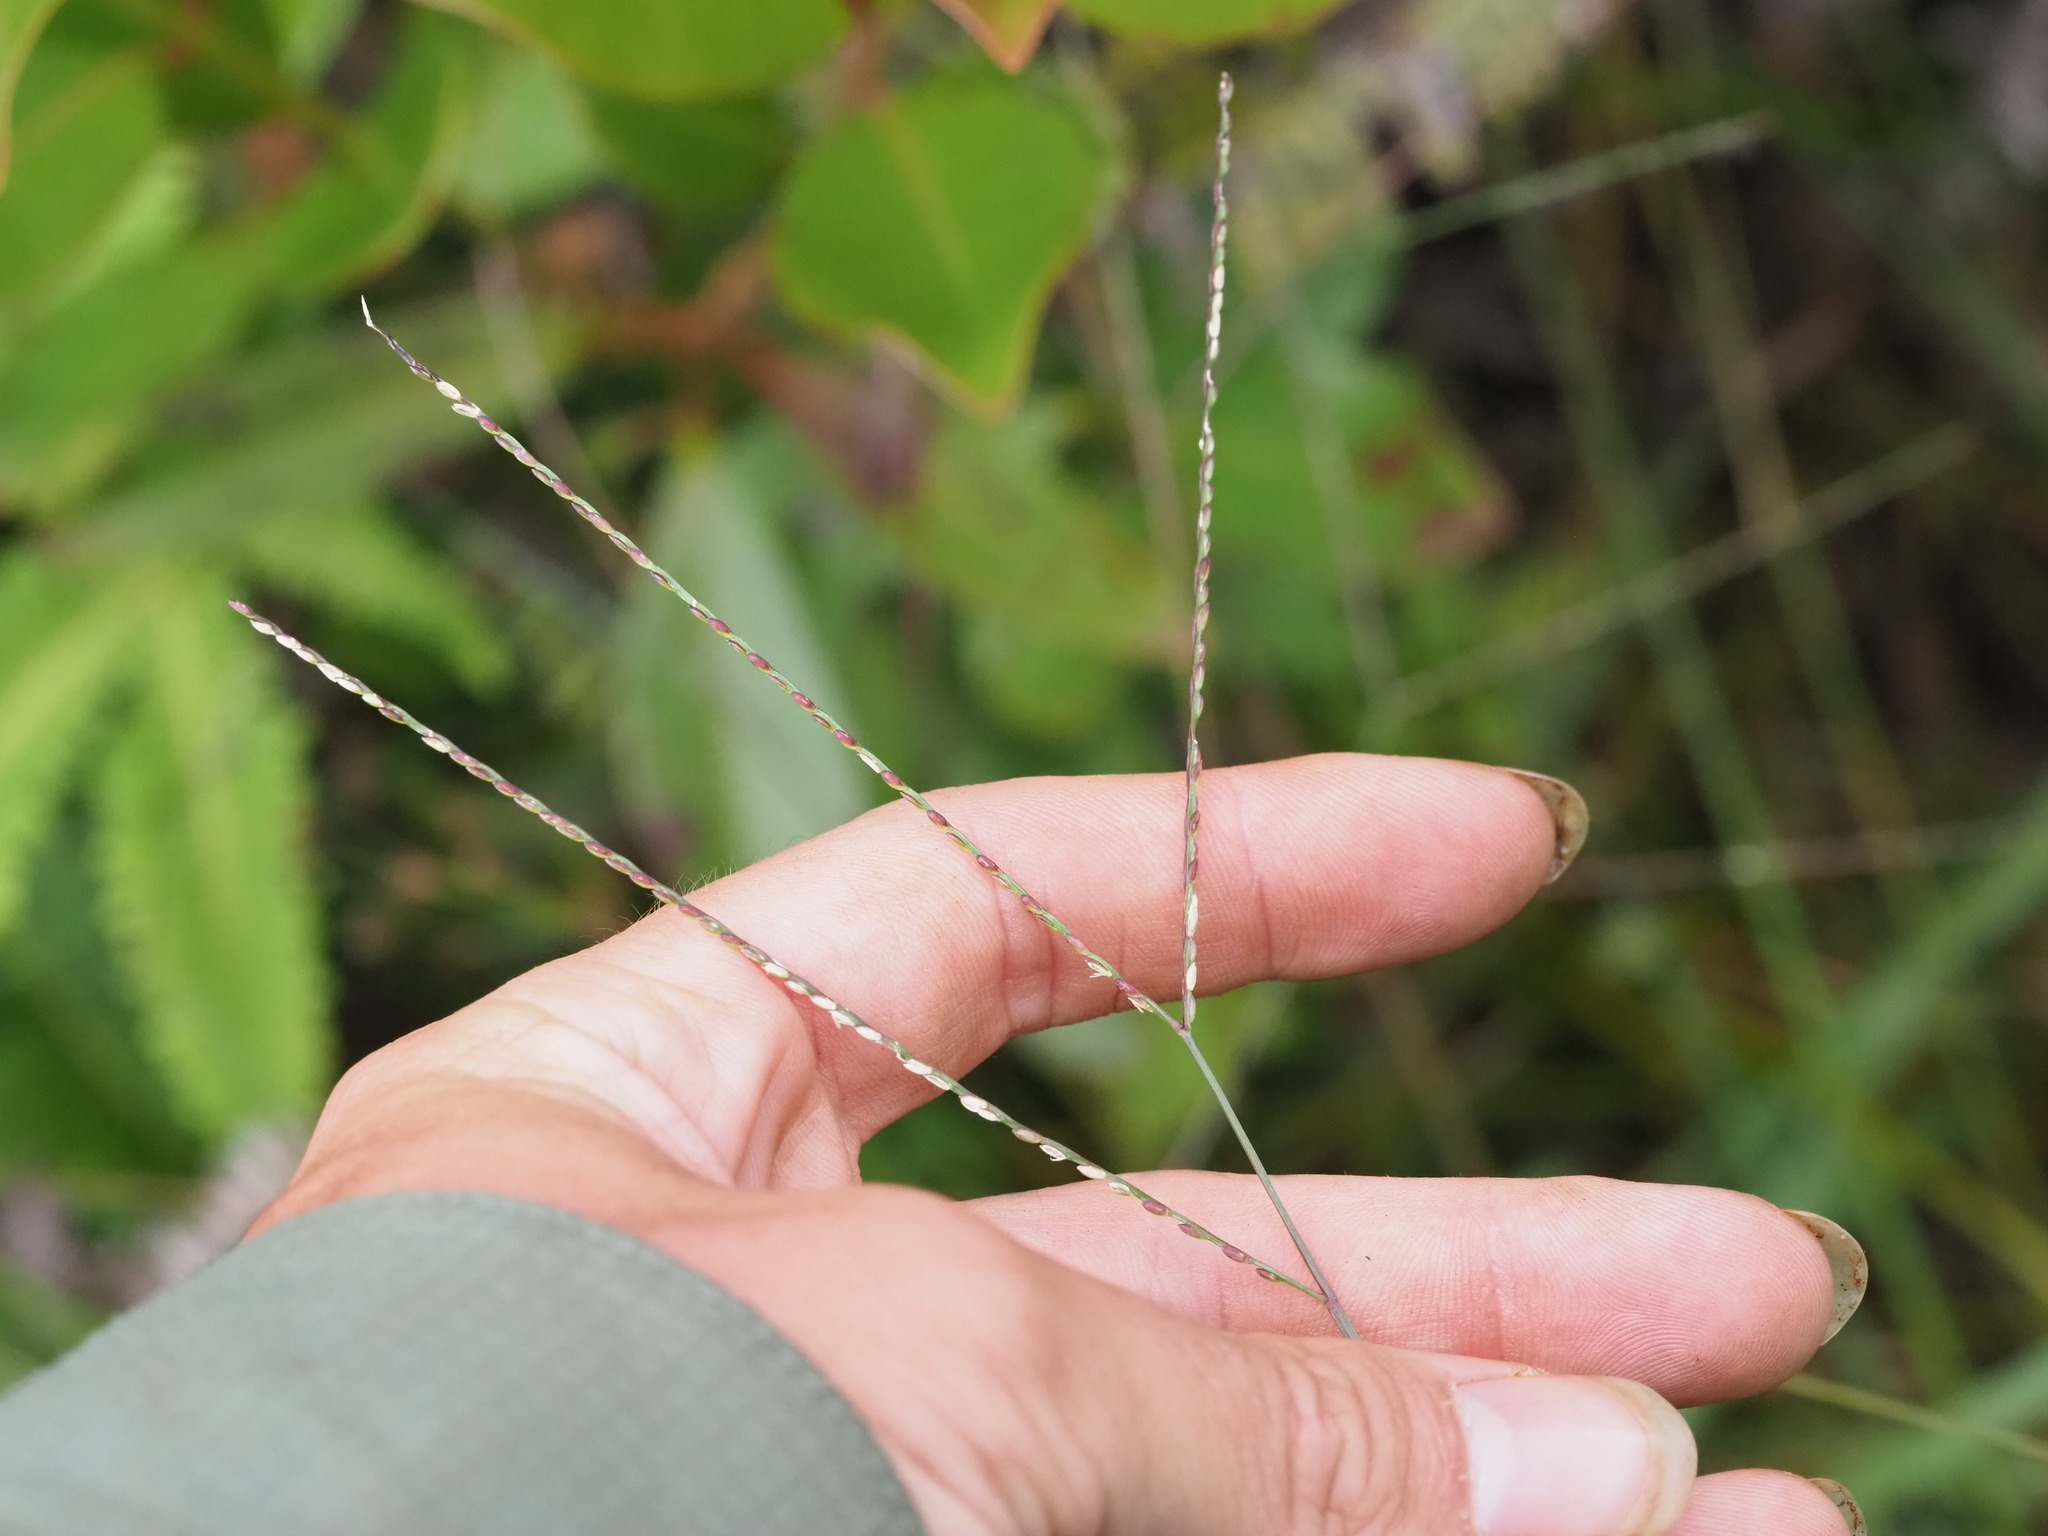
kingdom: Plantae
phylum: Tracheophyta
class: Liliopsida
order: Poales
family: Poaceae
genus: Axonopus
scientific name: Axonopus fissifolius
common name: Common carpetgrass
